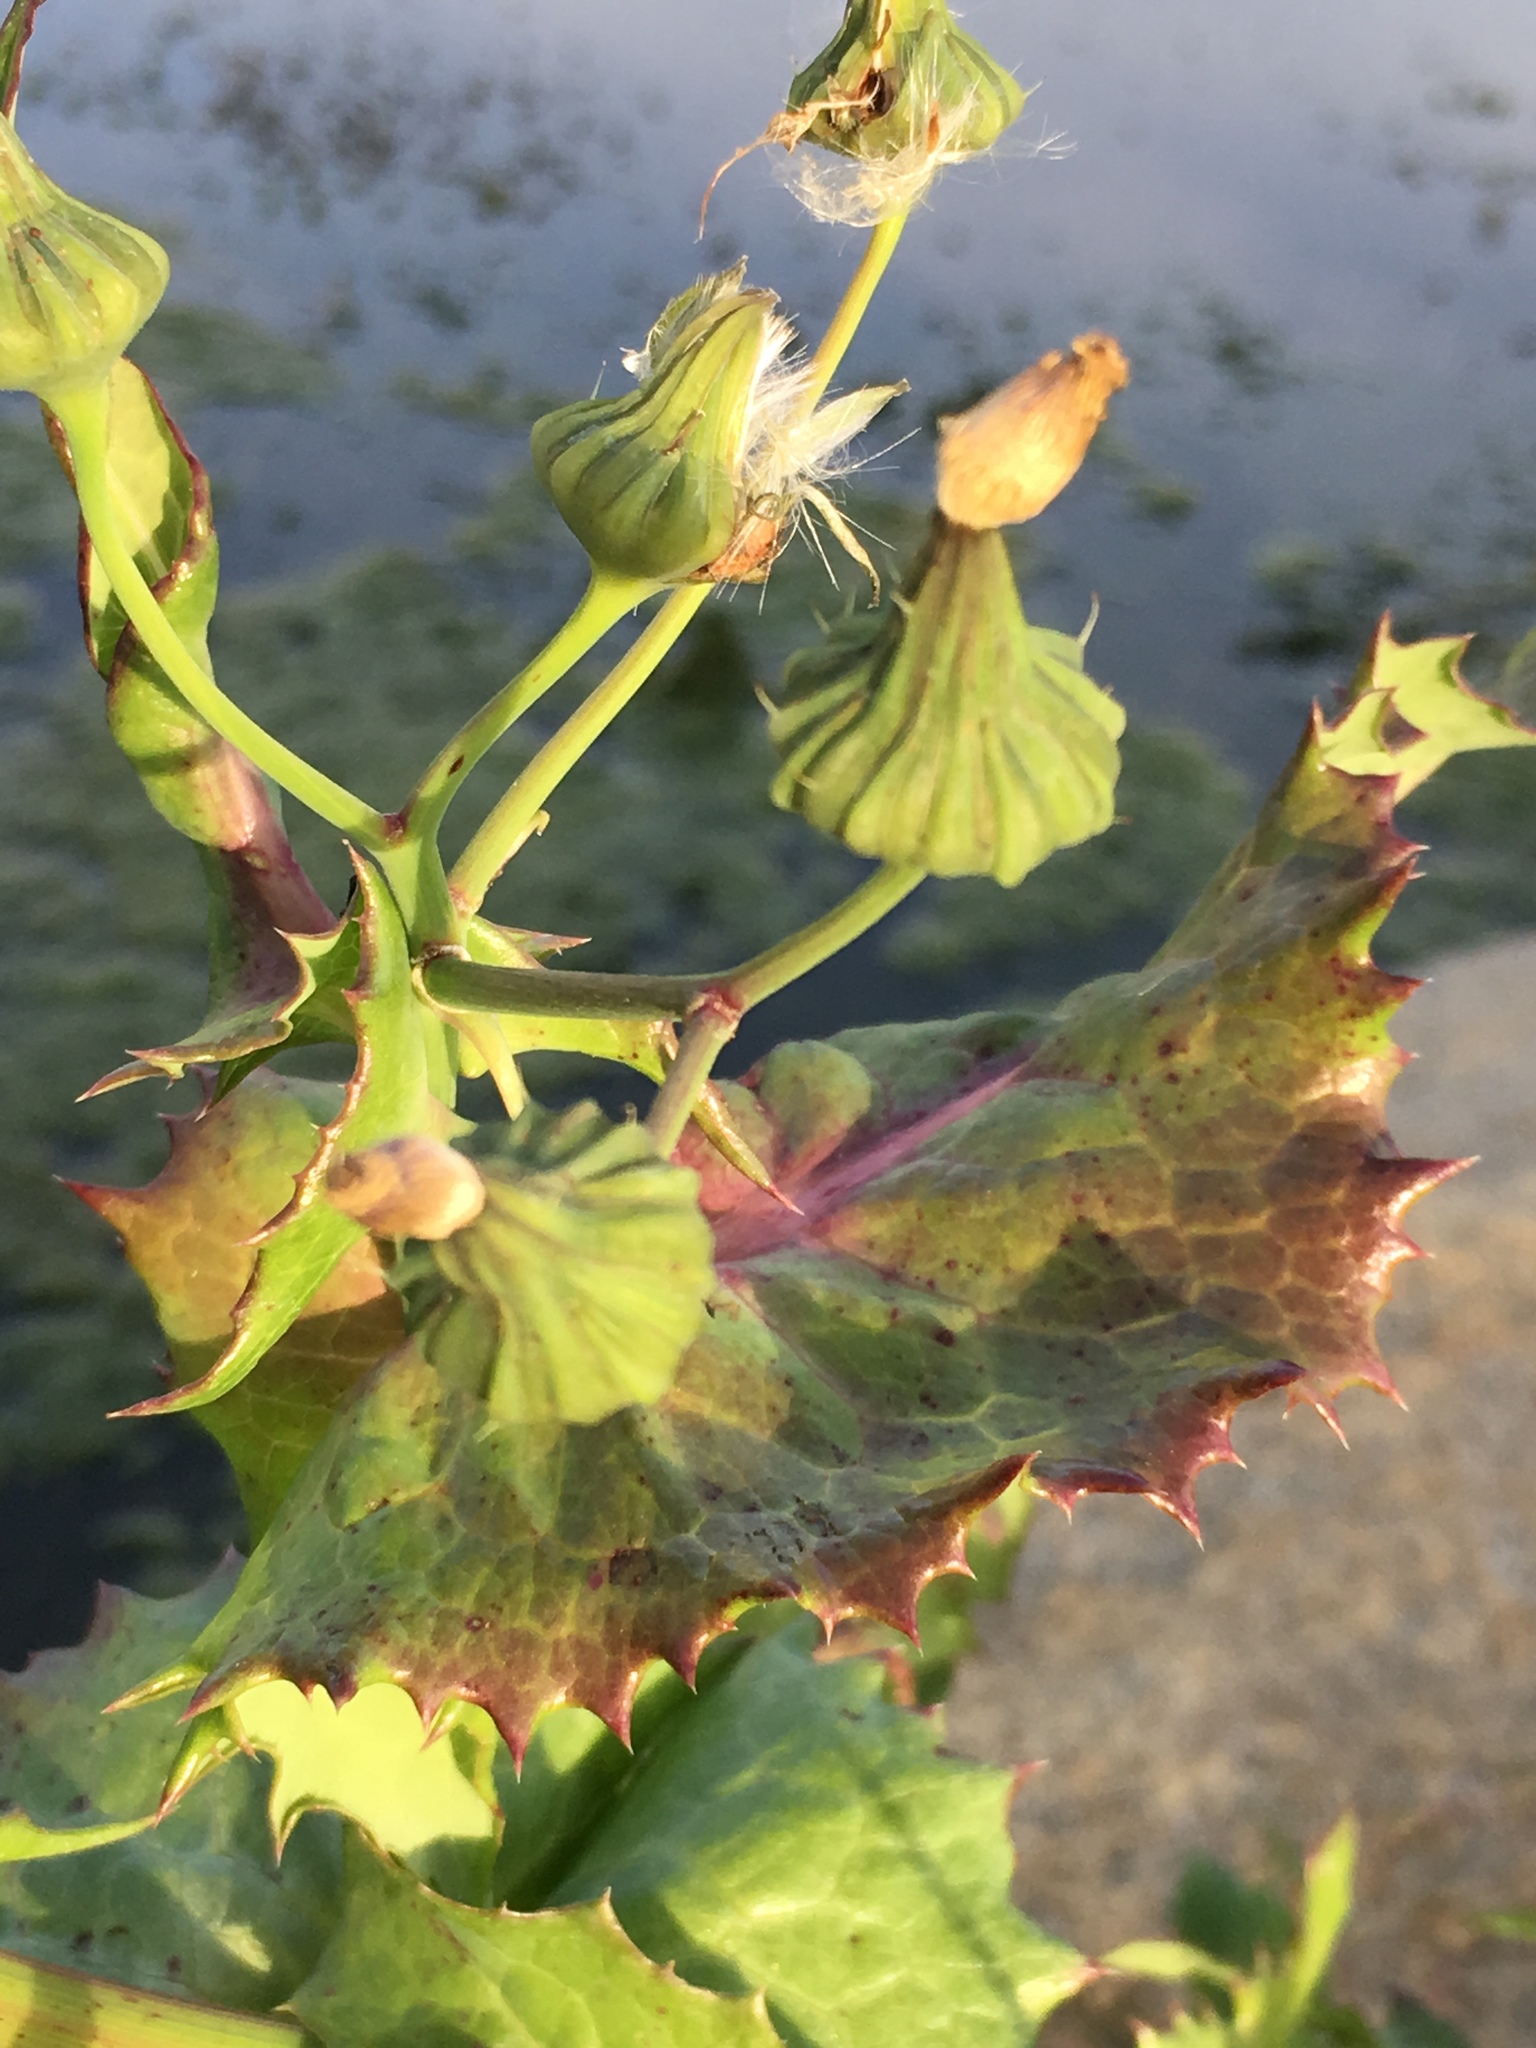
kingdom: Plantae
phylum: Tracheophyta
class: Magnoliopsida
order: Asterales
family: Asteraceae
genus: Sonchus
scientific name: Sonchus oleraceus
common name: Common sowthistle
